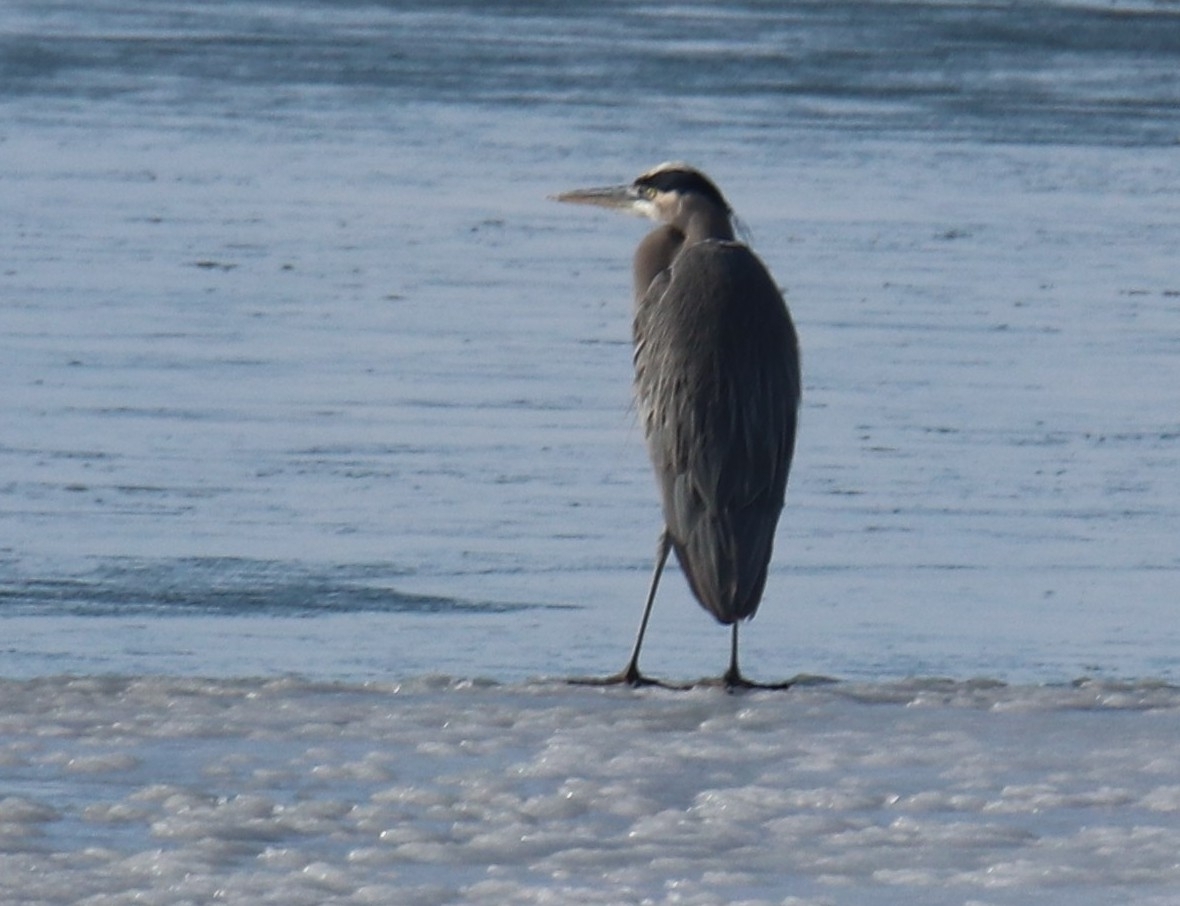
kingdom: Animalia
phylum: Chordata
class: Aves
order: Pelecaniformes
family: Ardeidae
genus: Ardea
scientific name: Ardea herodias
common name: Great blue heron
